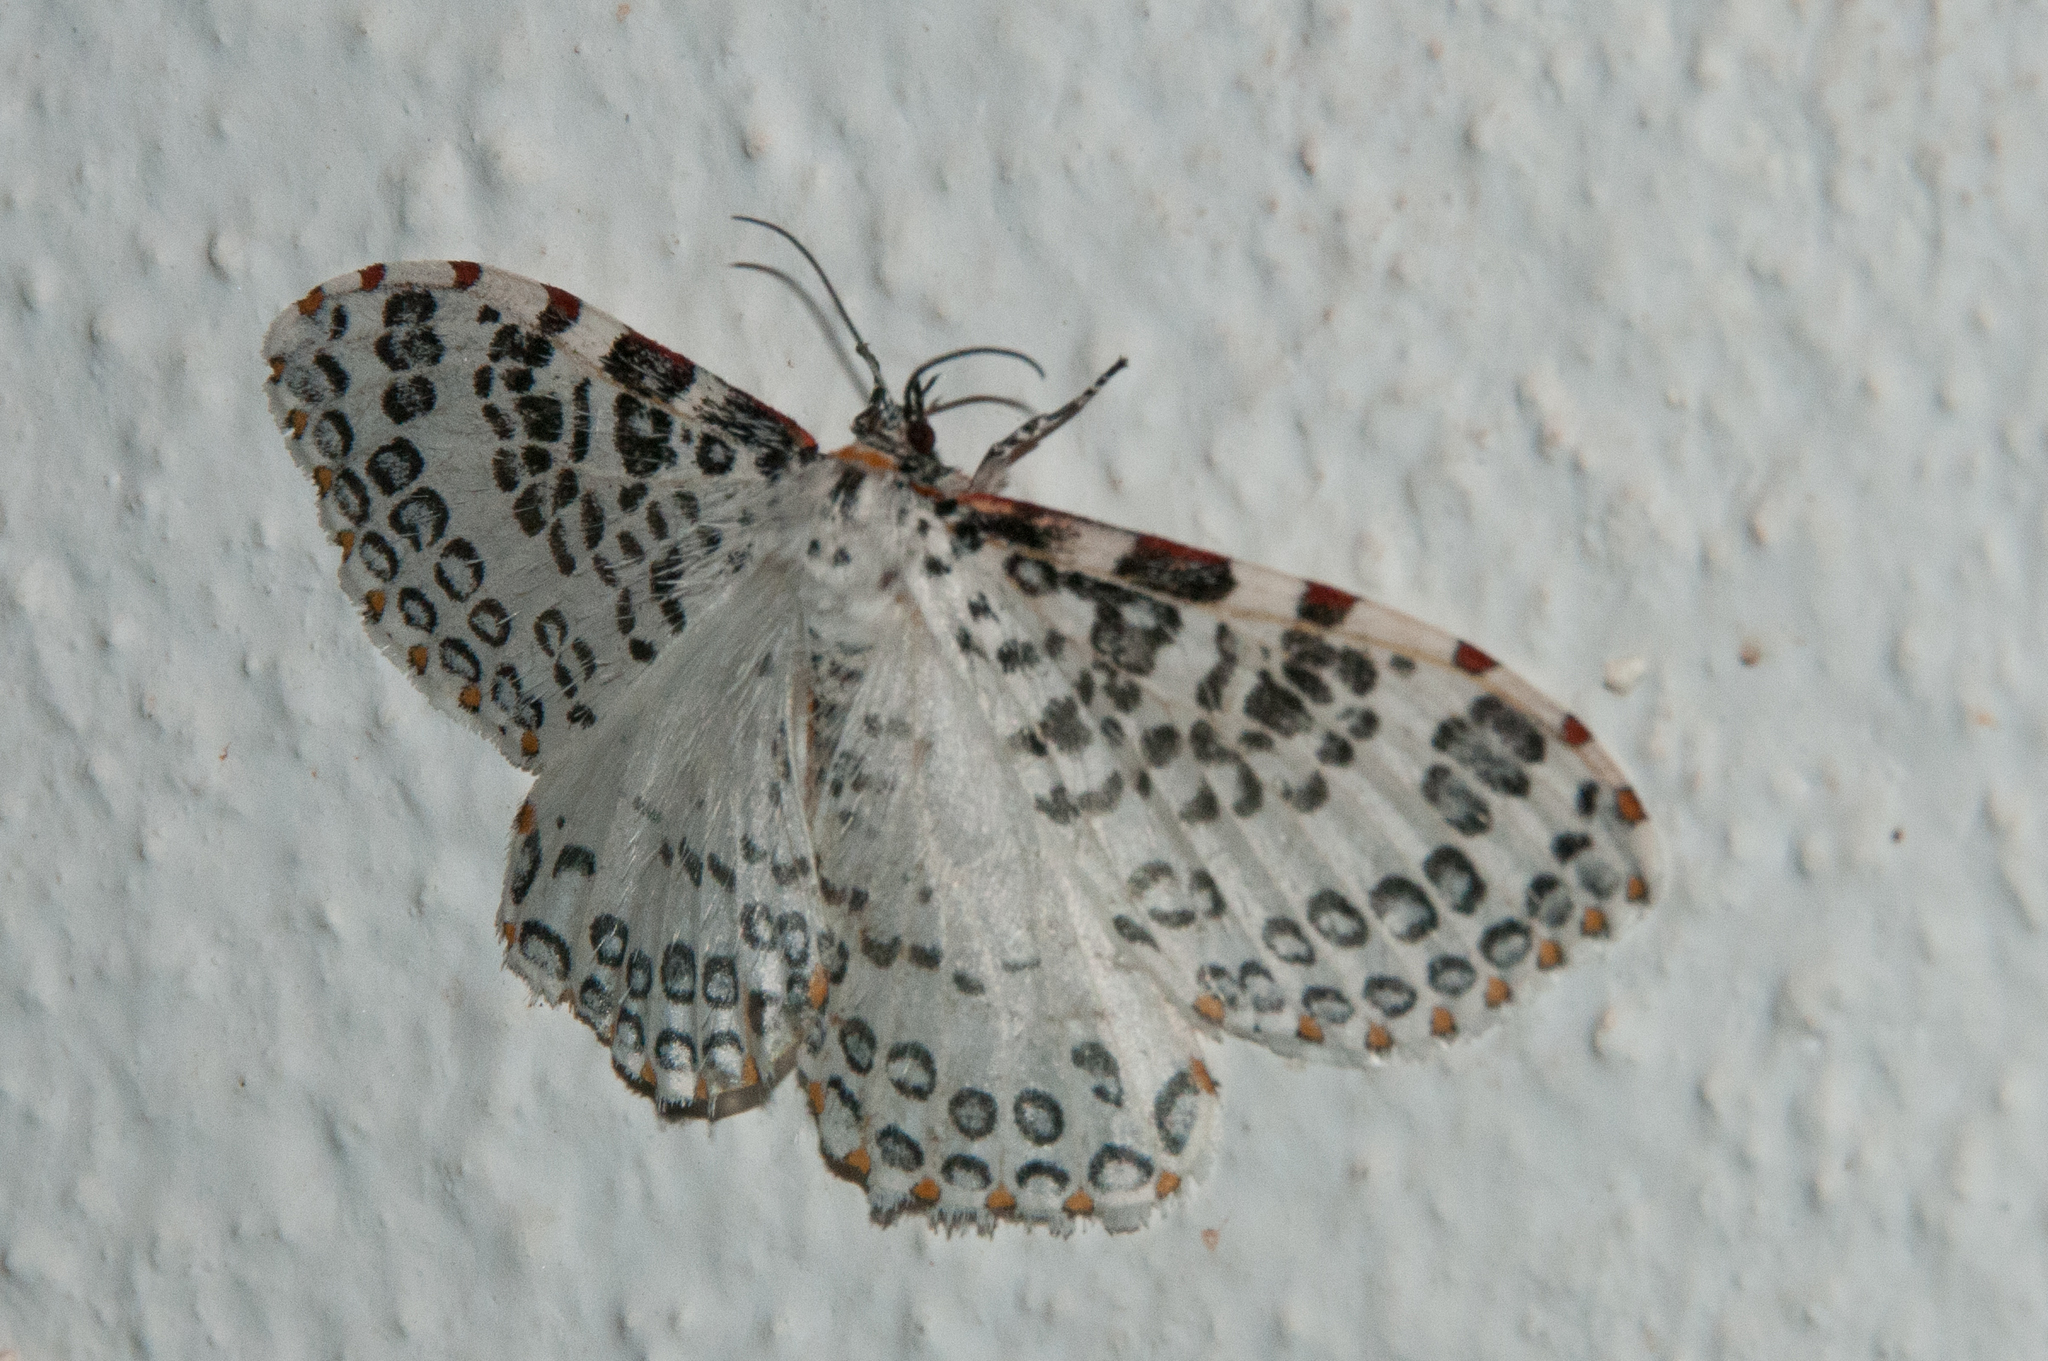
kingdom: Animalia
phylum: Arthropoda
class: Insecta
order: Lepidoptera
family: Callidulidae
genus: Caloschemia
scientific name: Caloschemia monolifera
